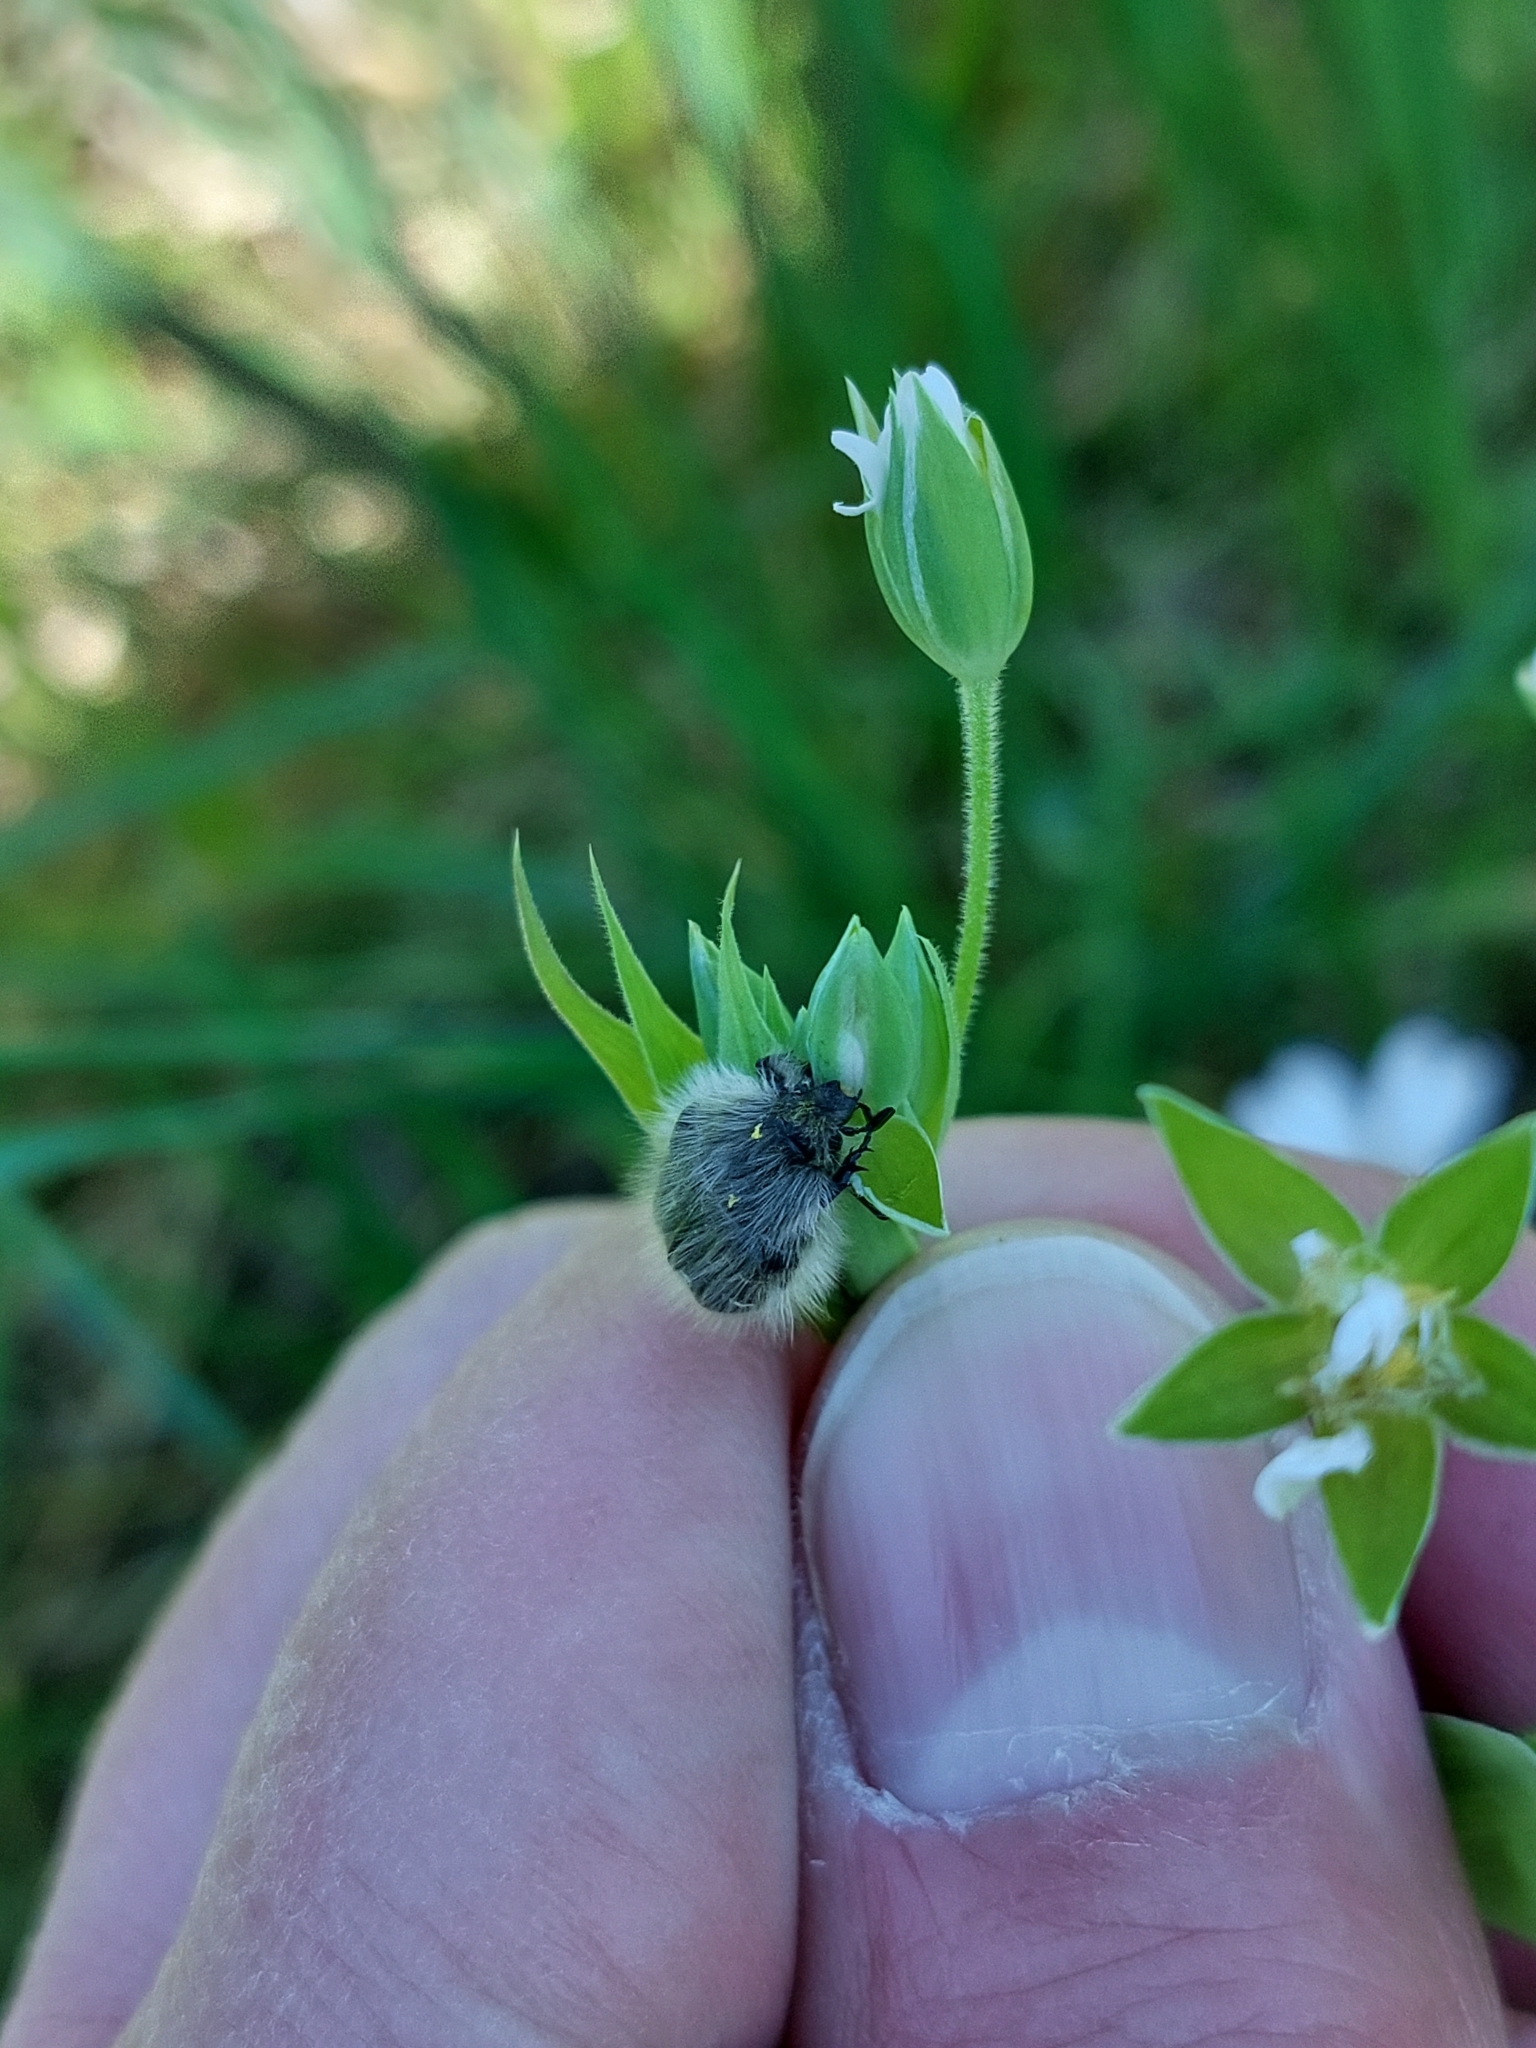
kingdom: Animalia
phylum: Arthropoda
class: Insecta
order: Coleoptera
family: Scarabaeidae
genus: Tropinota
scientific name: Tropinota hirta
